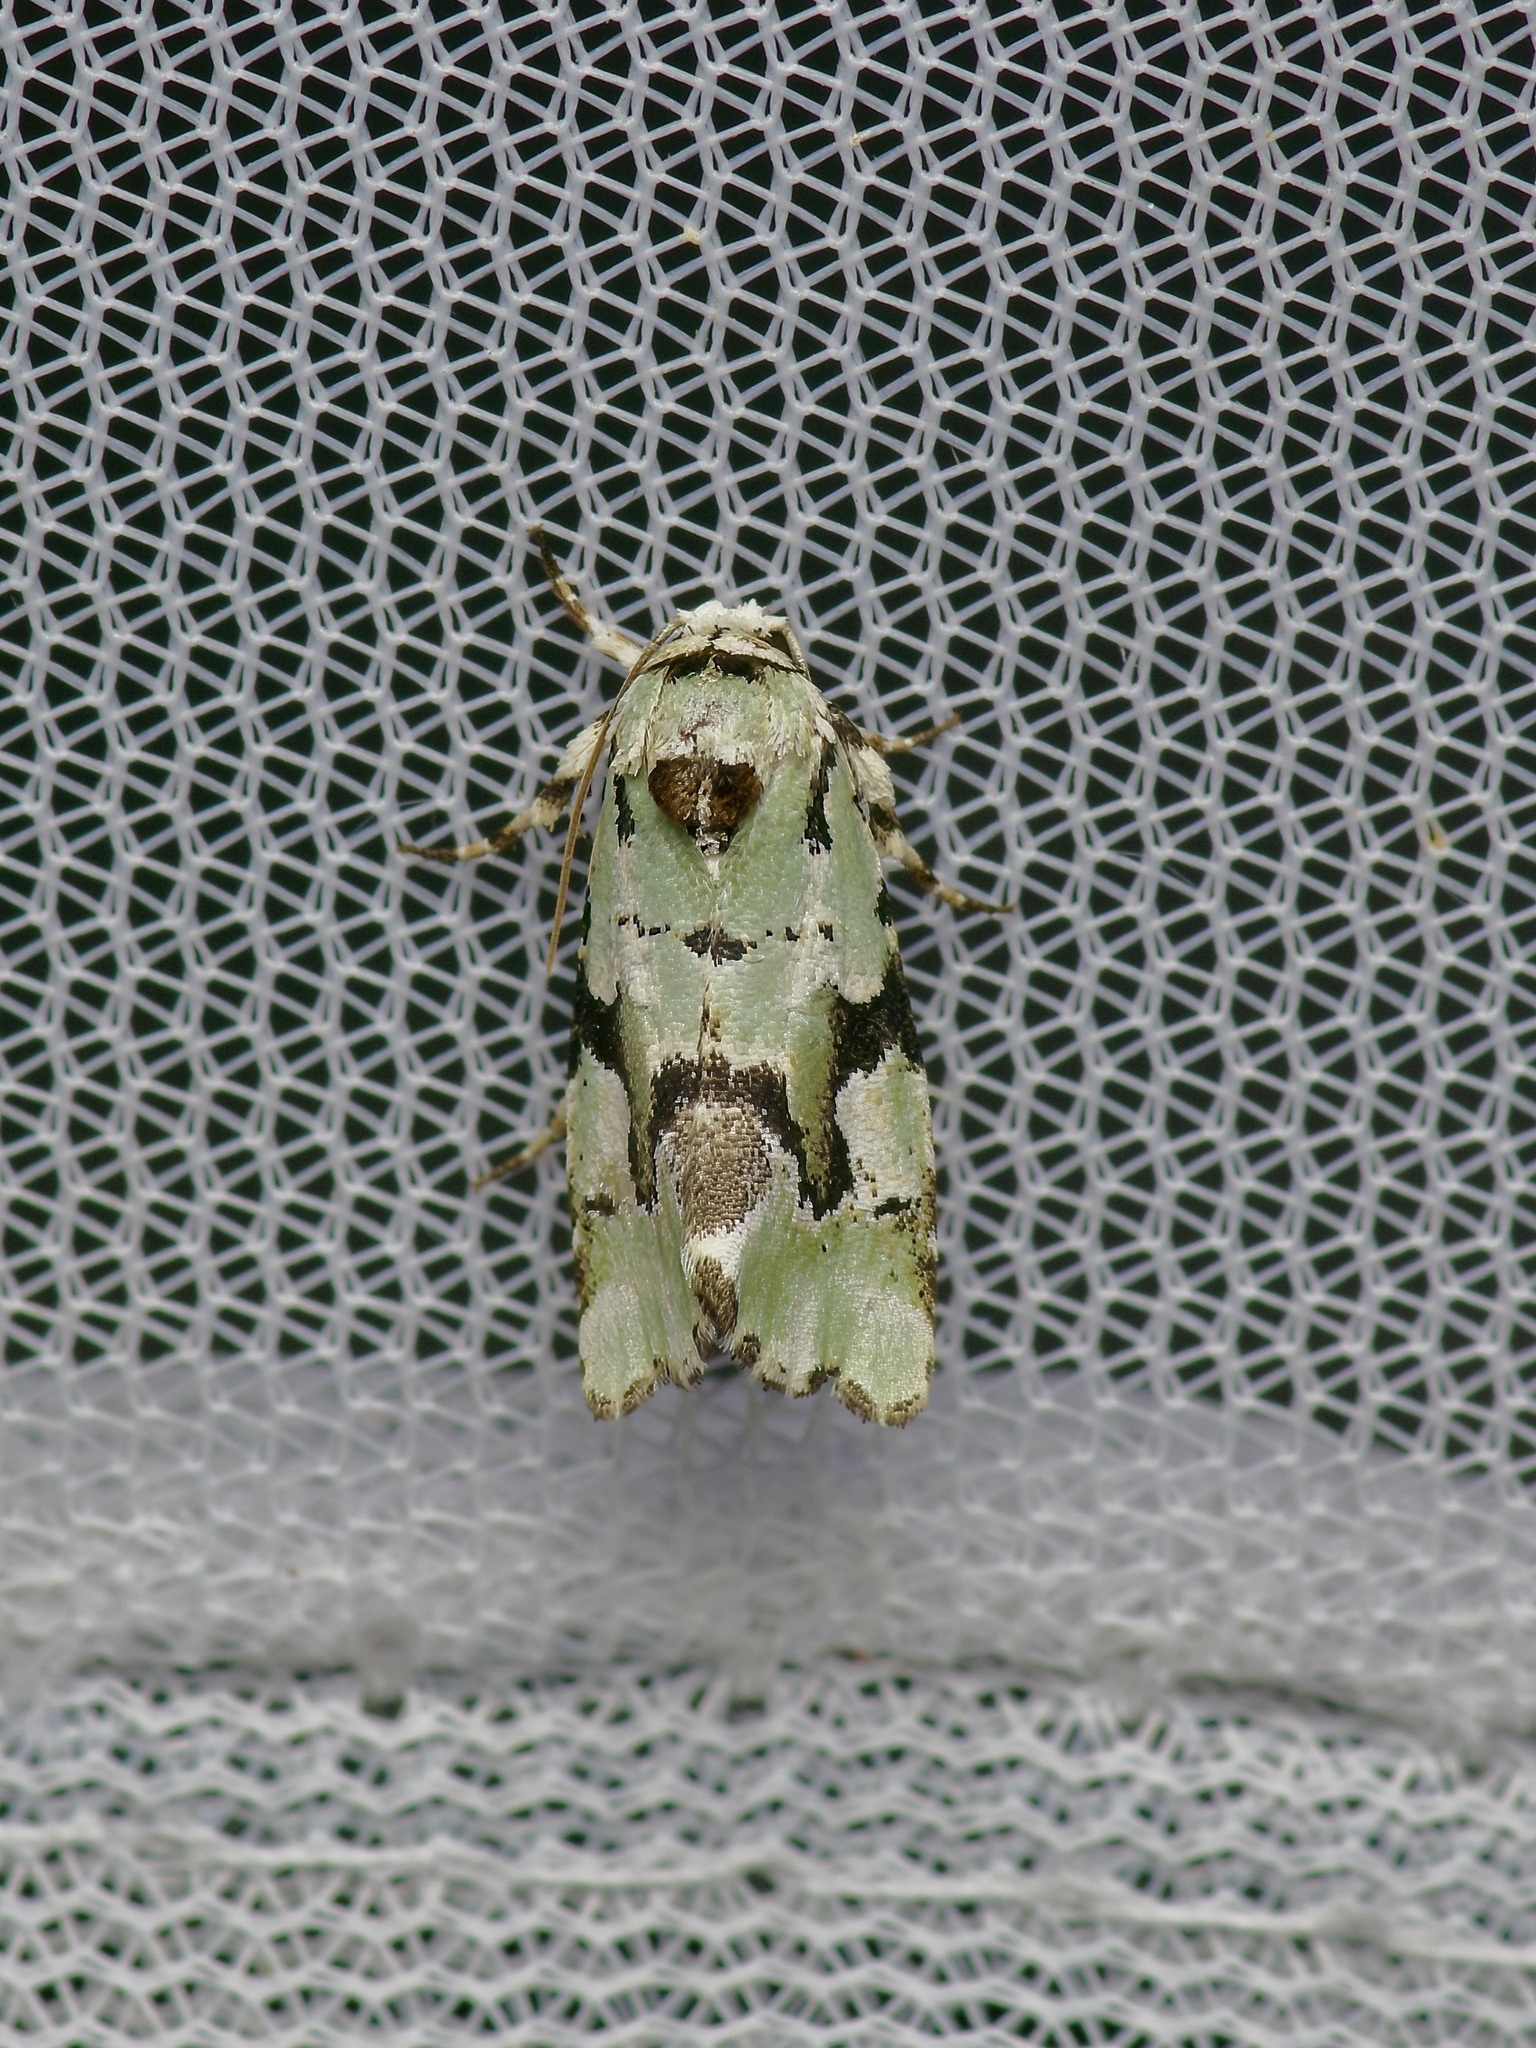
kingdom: Animalia
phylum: Arthropoda
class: Insecta
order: Lepidoptera
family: Noctuidae
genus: Emarginea
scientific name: Emarginea percara
